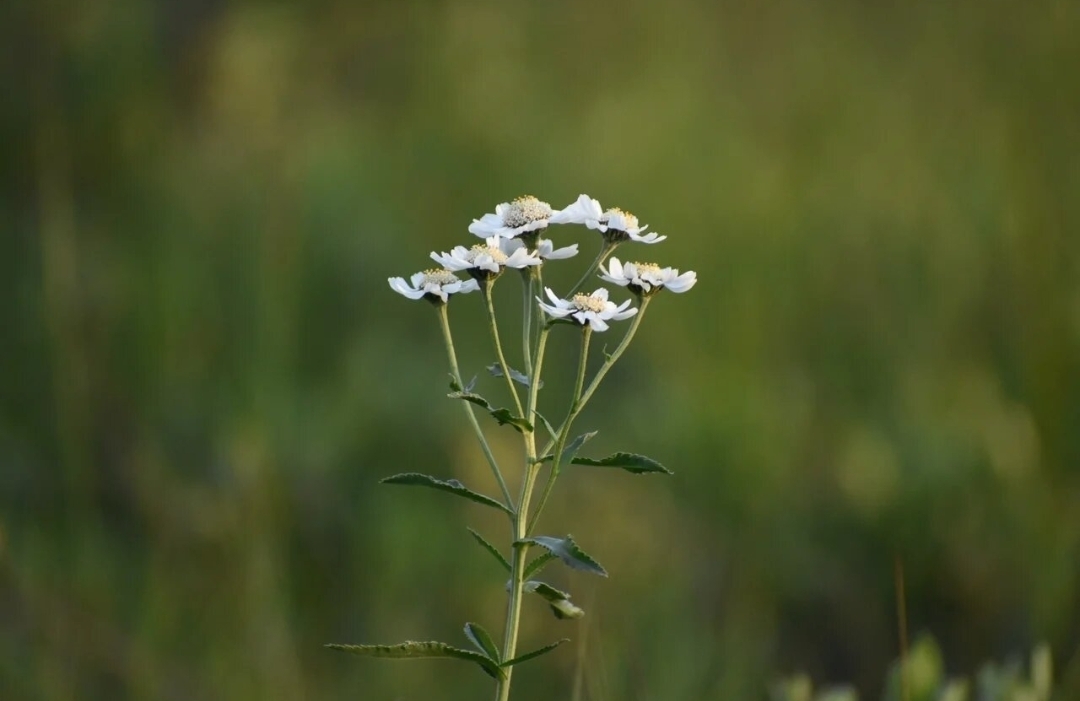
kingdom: Plantae
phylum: Tracheophyta
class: Magnoliopsida
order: Asterales
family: Asteraceae
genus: Achillea
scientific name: Achillea ptarmica
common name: Sneezeweed
